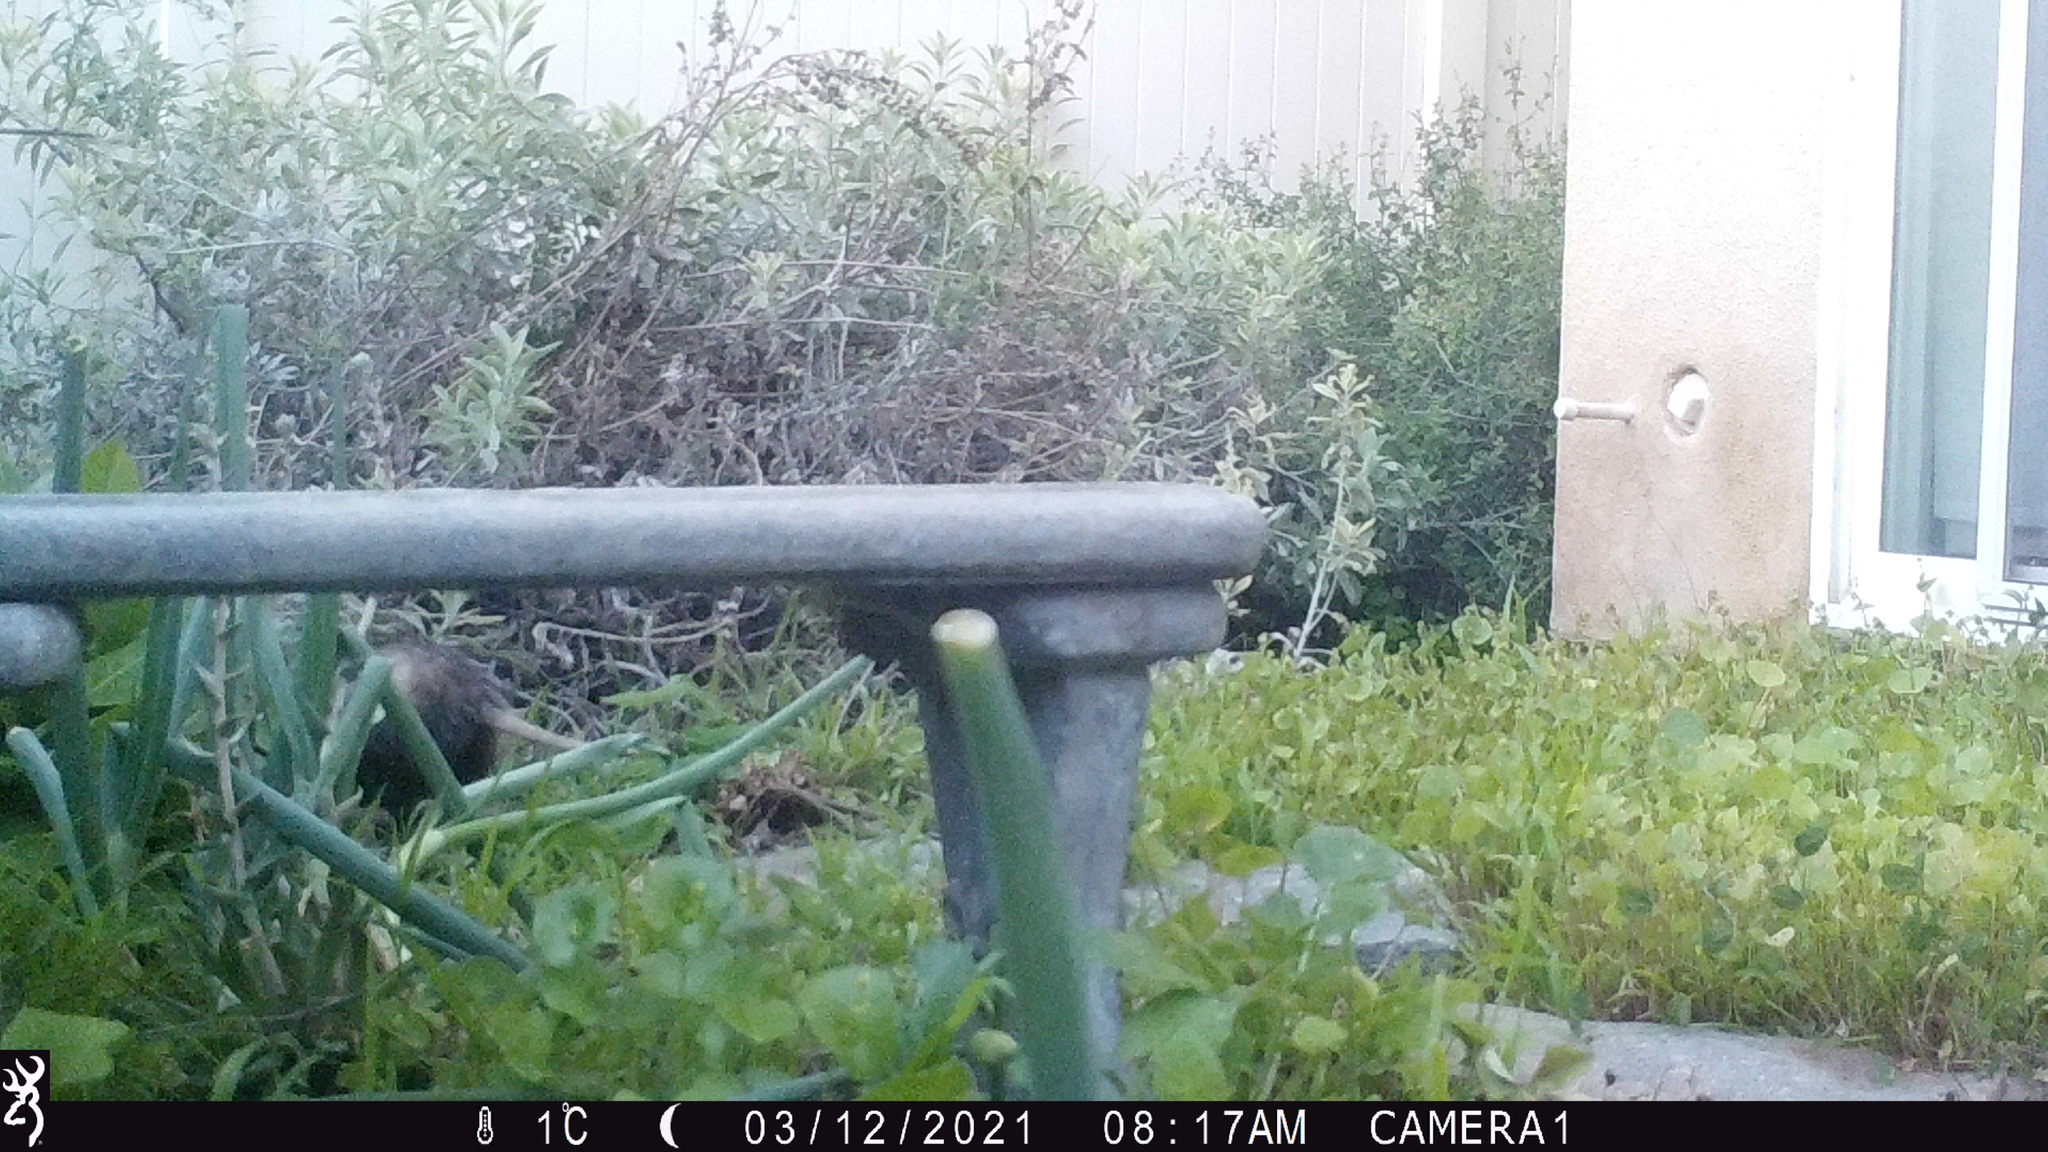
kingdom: Animalia
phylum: Chordata
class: Mammalia
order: Didelphimorphia
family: Didelphidae
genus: Didelphis
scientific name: Didelphis virginiana
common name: Virginia opossum
